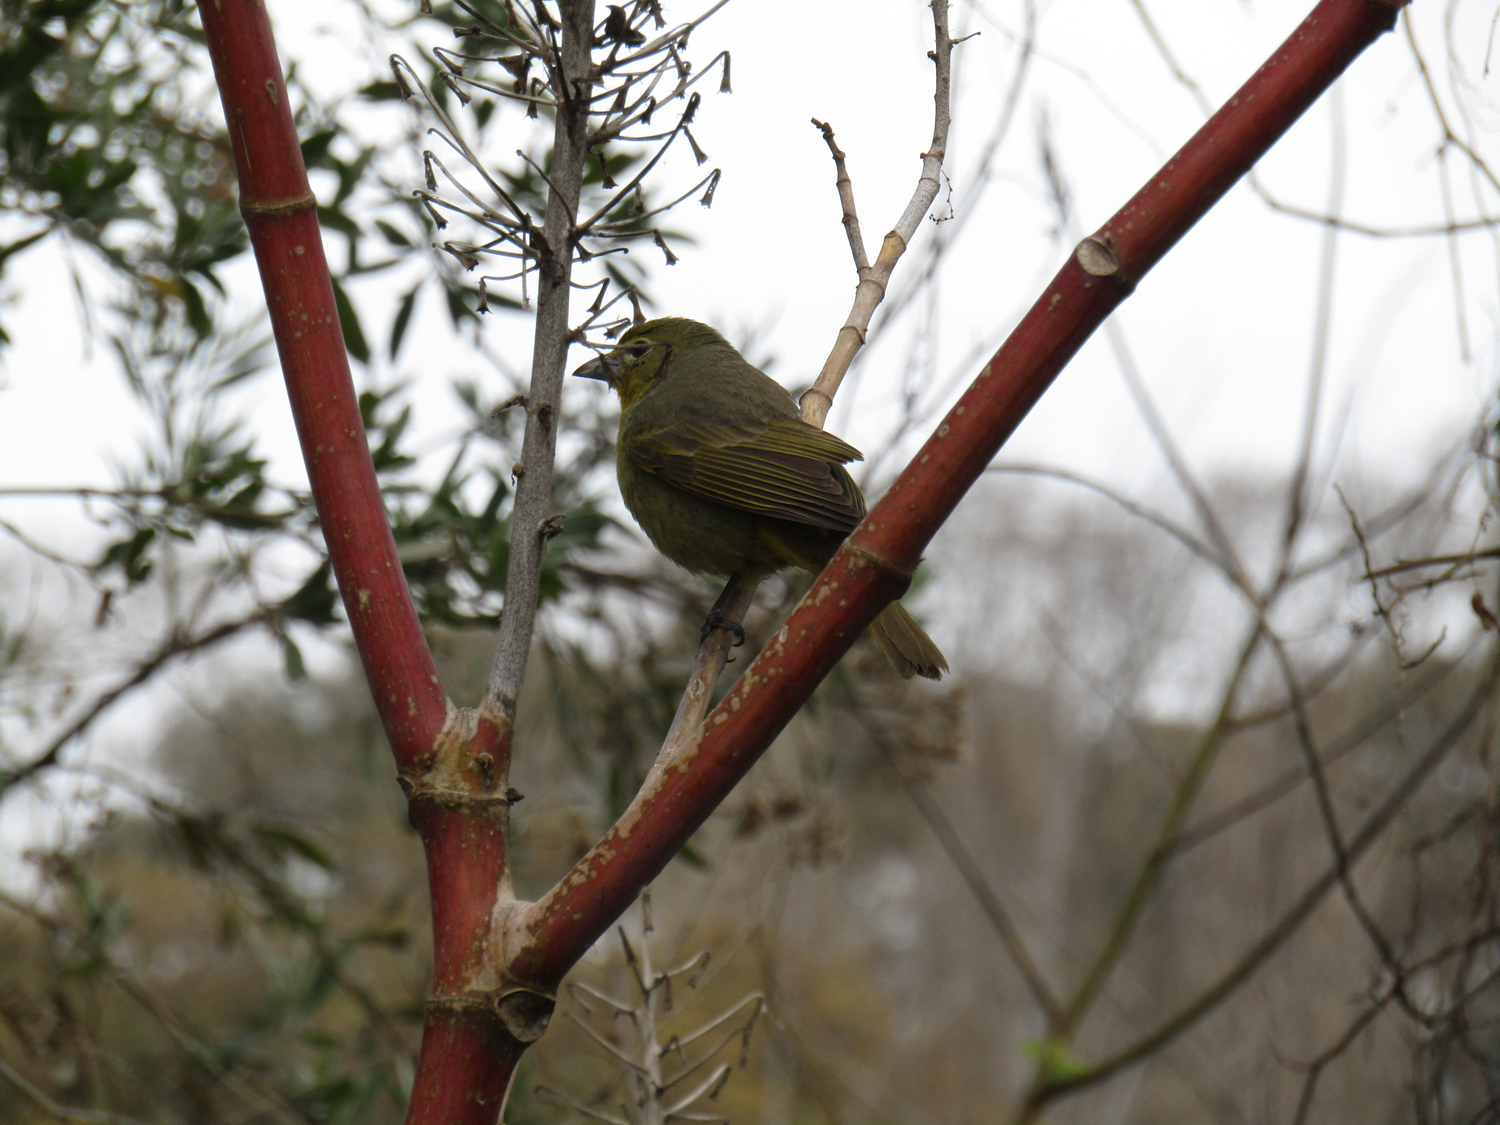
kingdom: Animalia
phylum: Chordata
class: Aves
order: Passeriformes
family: Cardinalidae
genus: Piranga
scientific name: Piranga flava
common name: Red tanager
